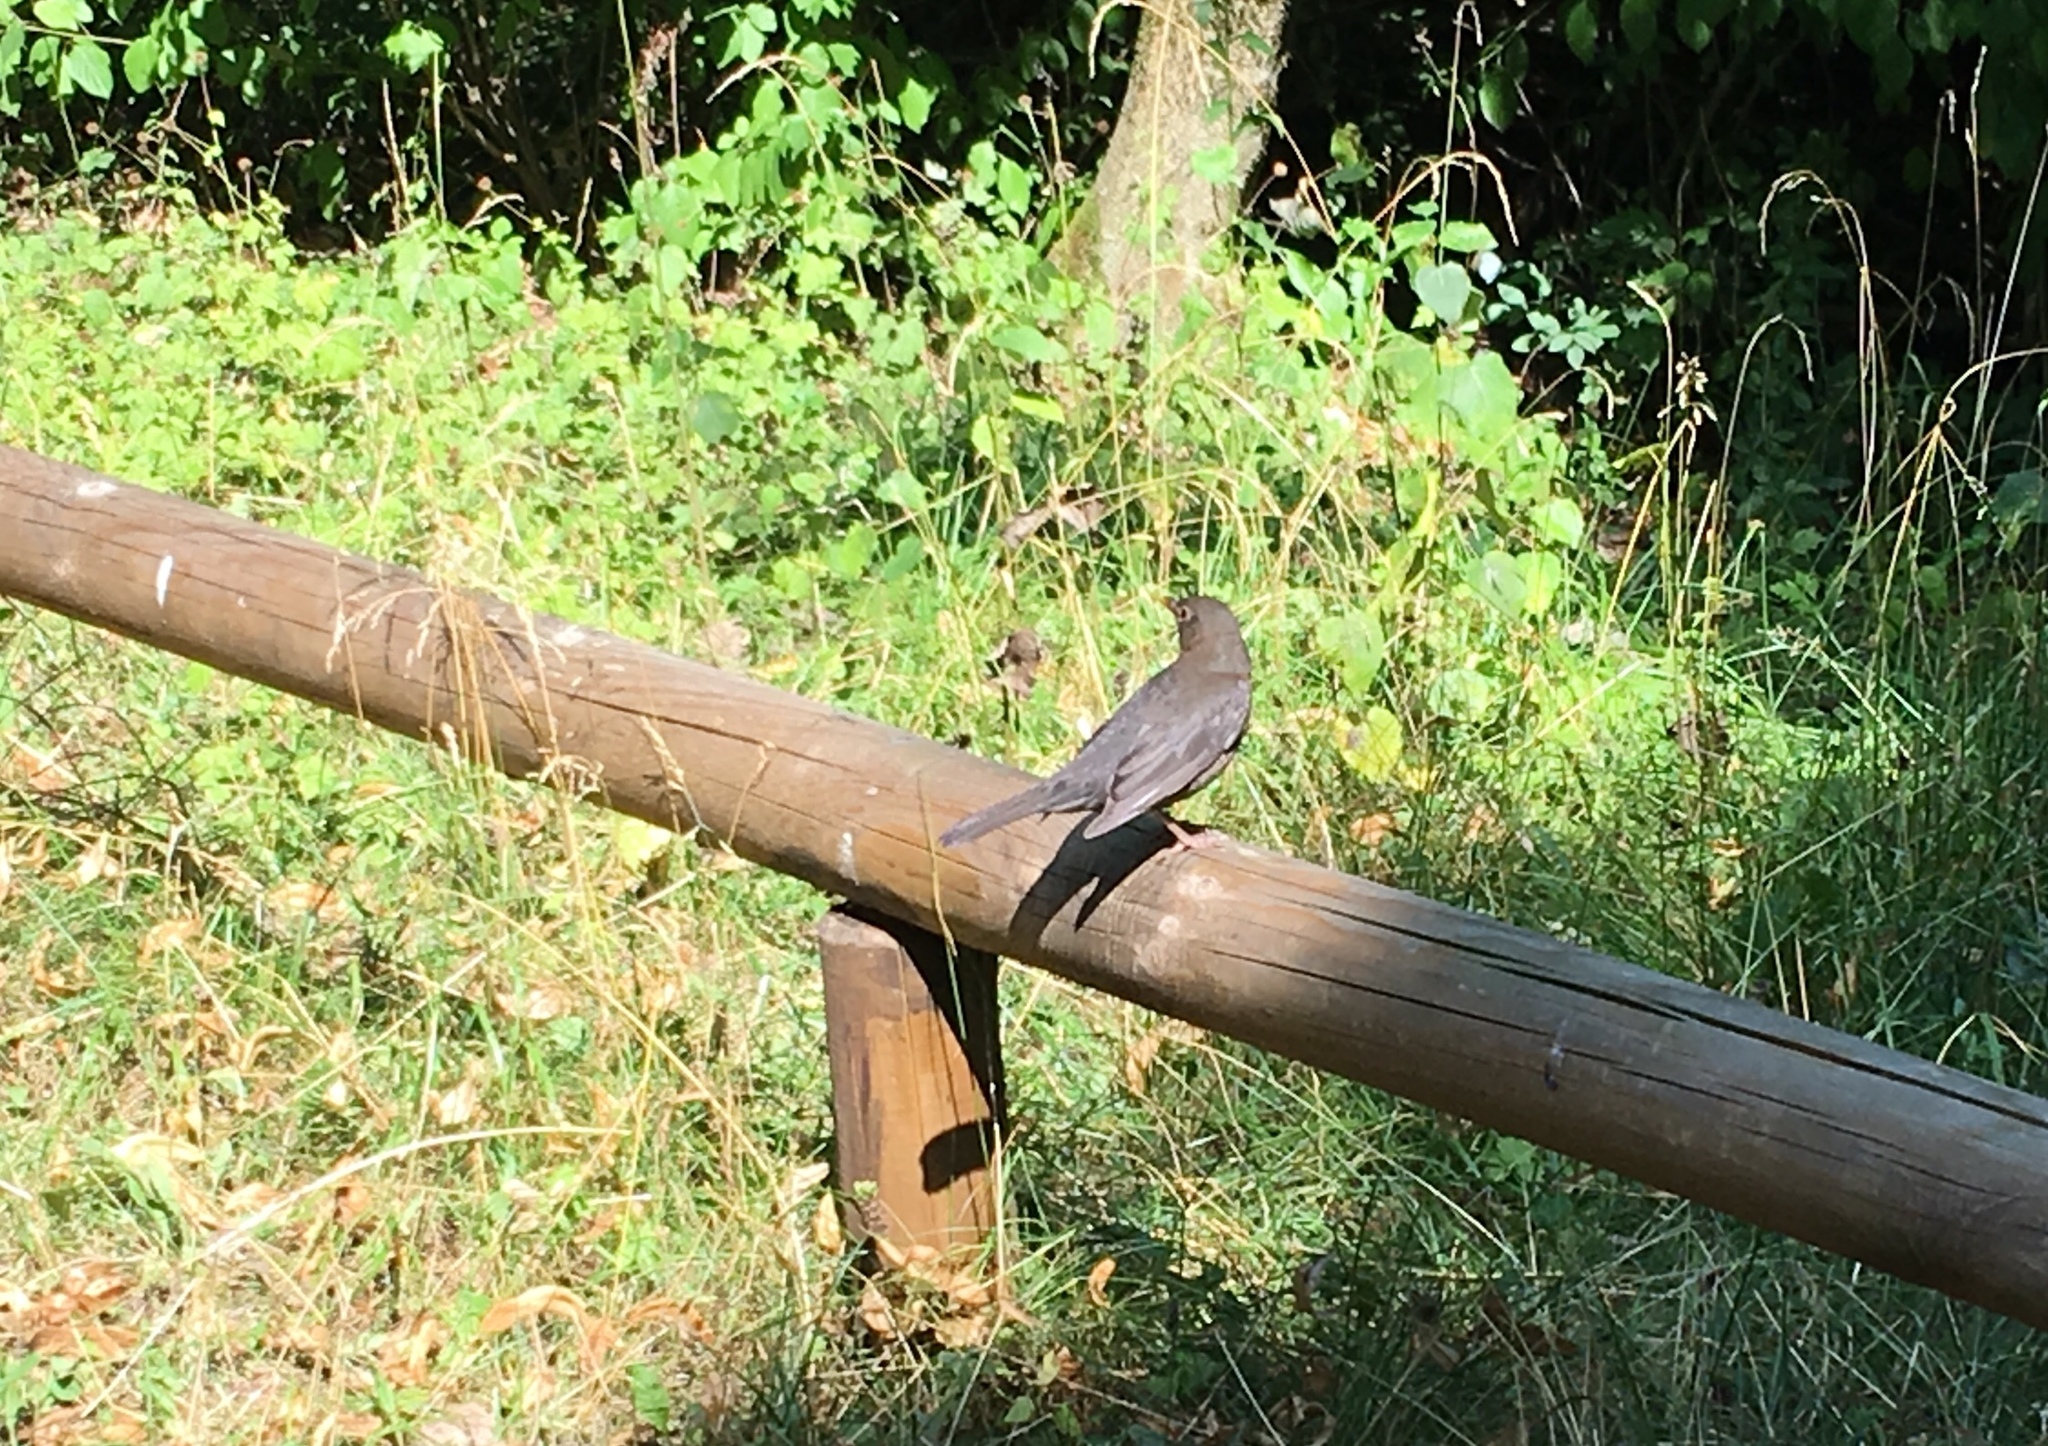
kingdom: Animalia
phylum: Chordata
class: Aves
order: Passeriformes
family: Turdidae
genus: Turdus
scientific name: Turdus merula
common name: Common blackbird
